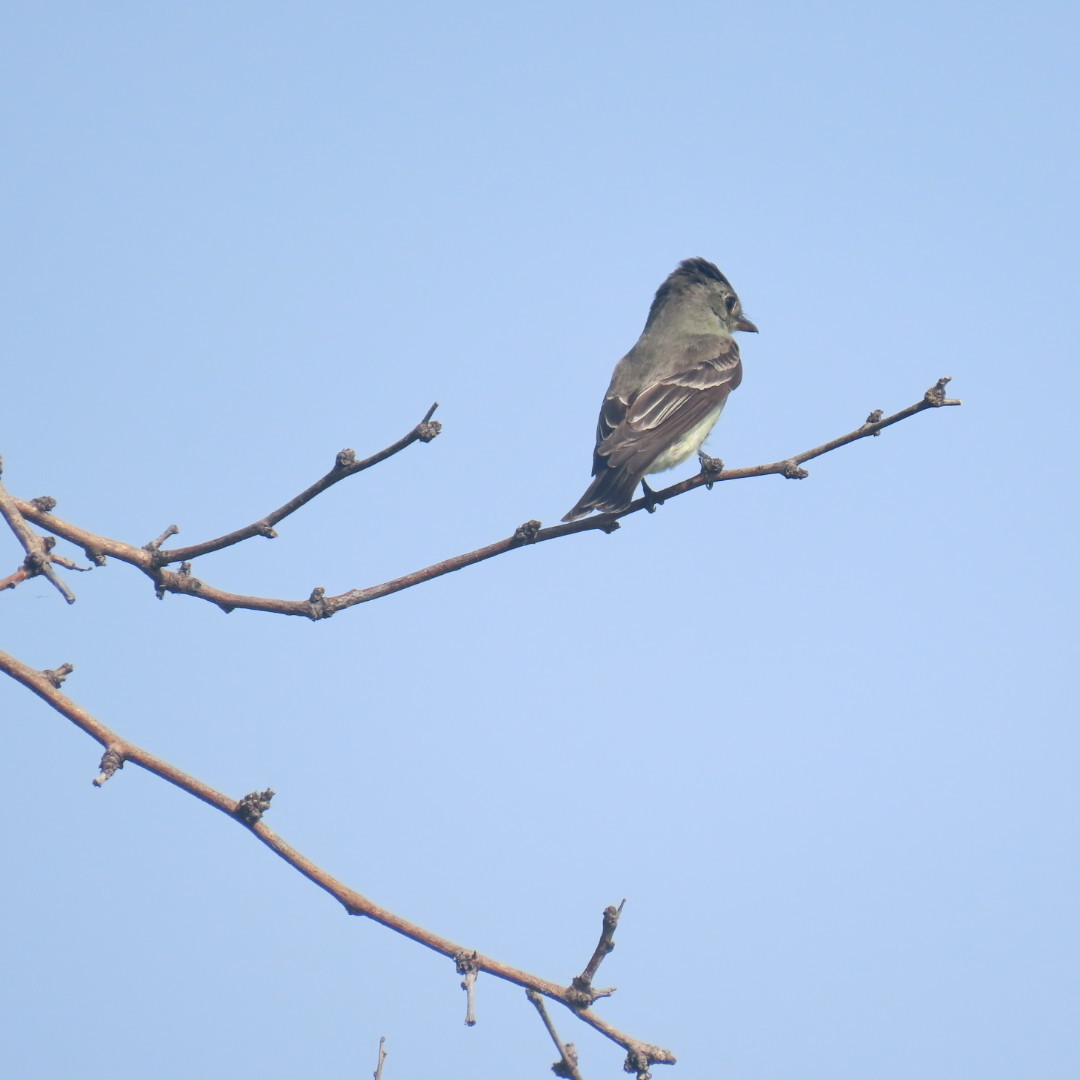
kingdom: Animalia
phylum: Chordata
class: Aves
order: Passeriformes
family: Tyrannidae
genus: Contopus
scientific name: Contopus virens
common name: Eastern wood-pewee
